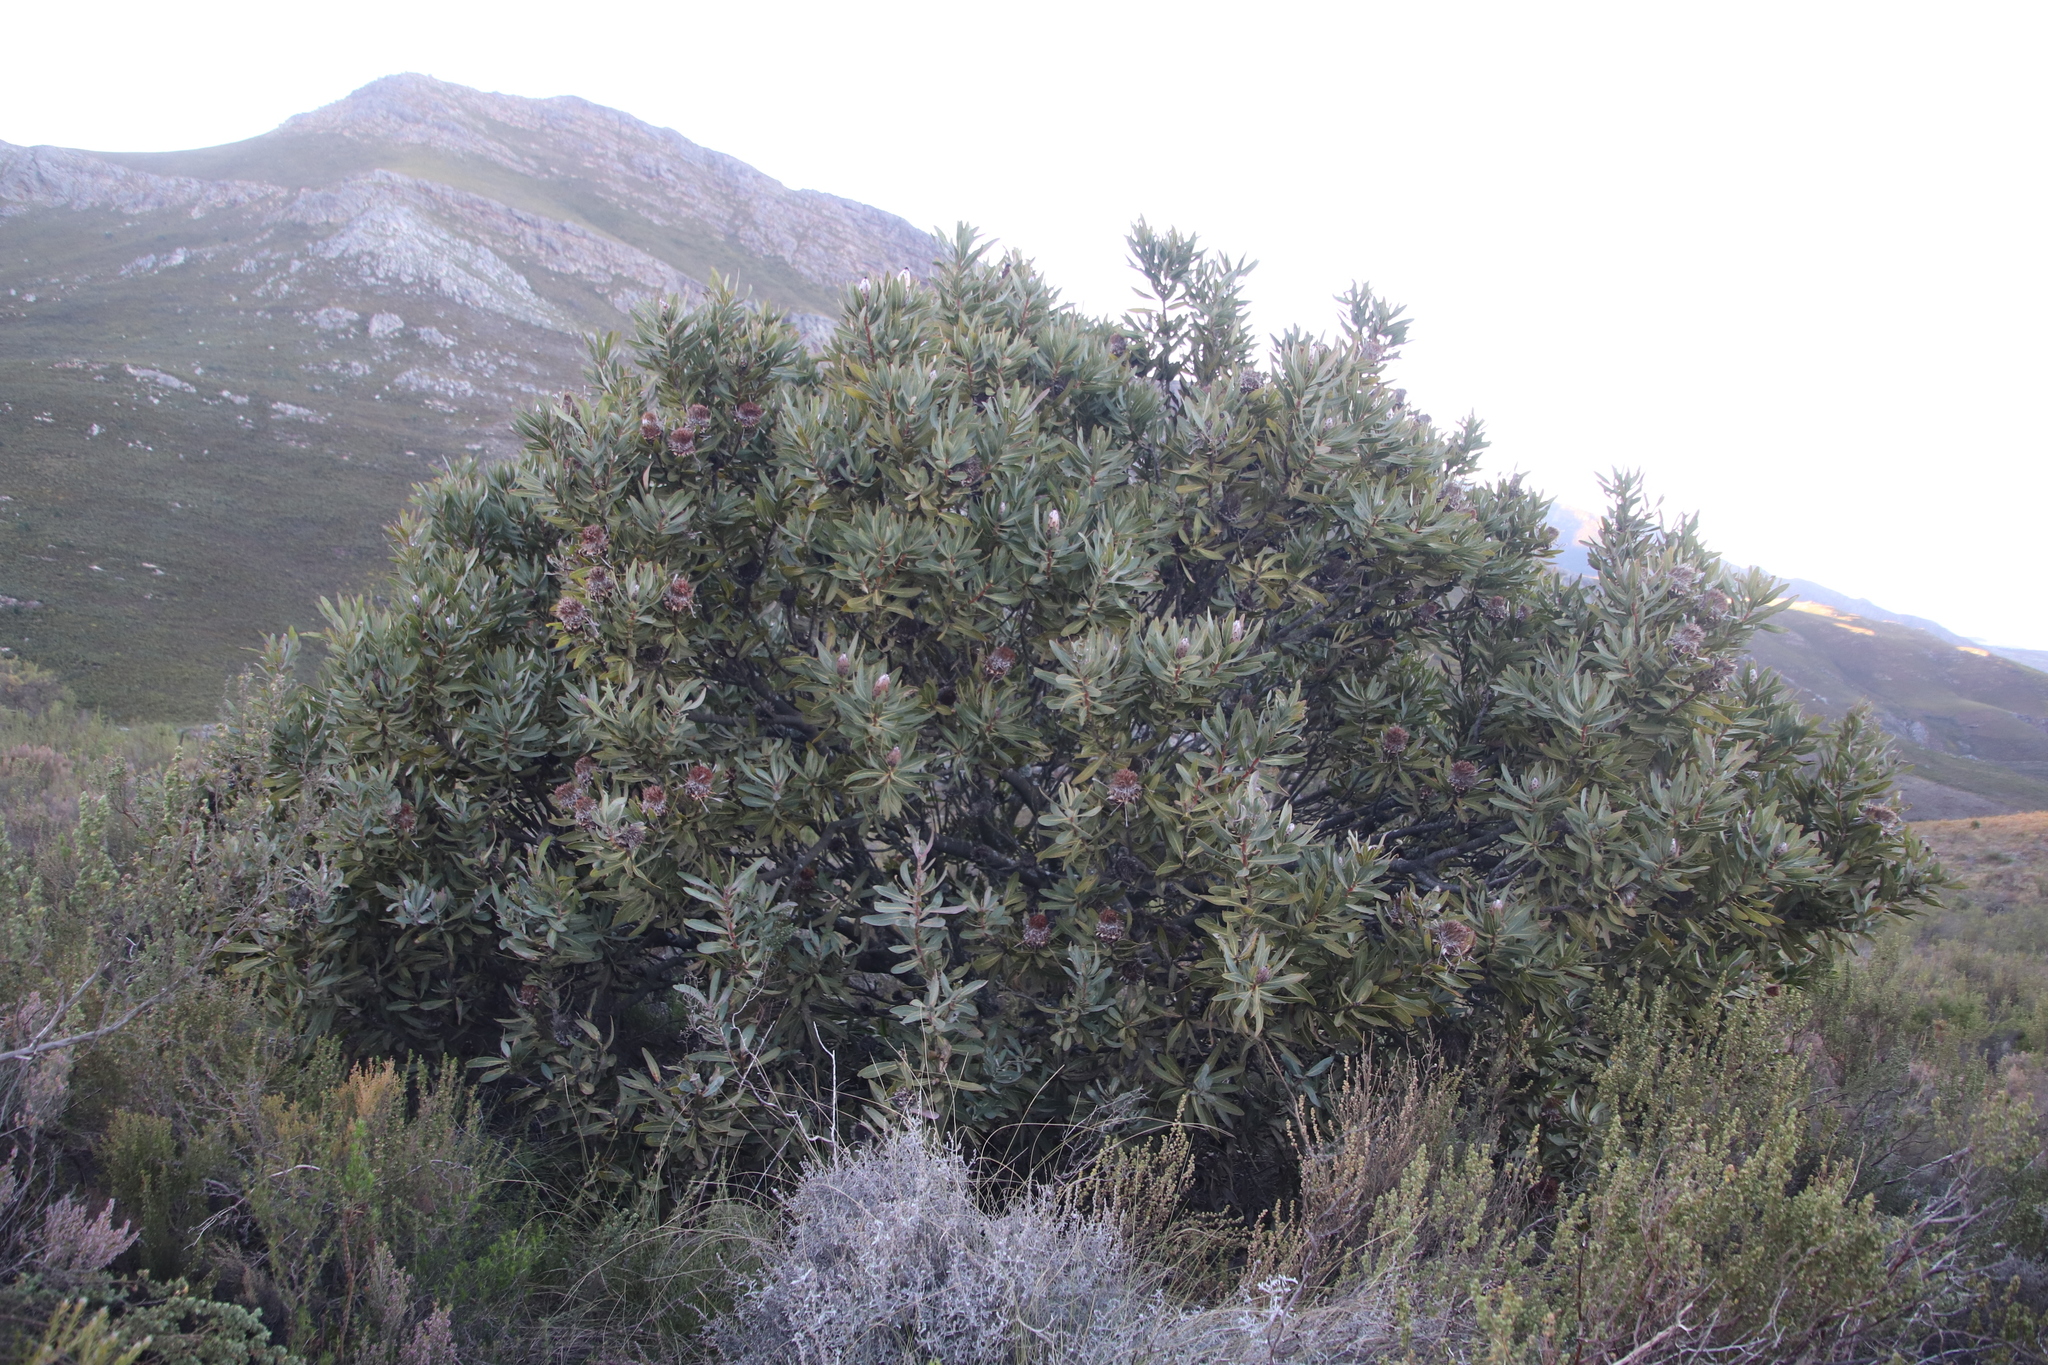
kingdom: Plantae
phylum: Tracheophyta
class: Magnoliopsida
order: Proteales
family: Proteaceae
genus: Protea
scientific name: Protea laurifolia
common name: Grey-leaf sugarbsh
